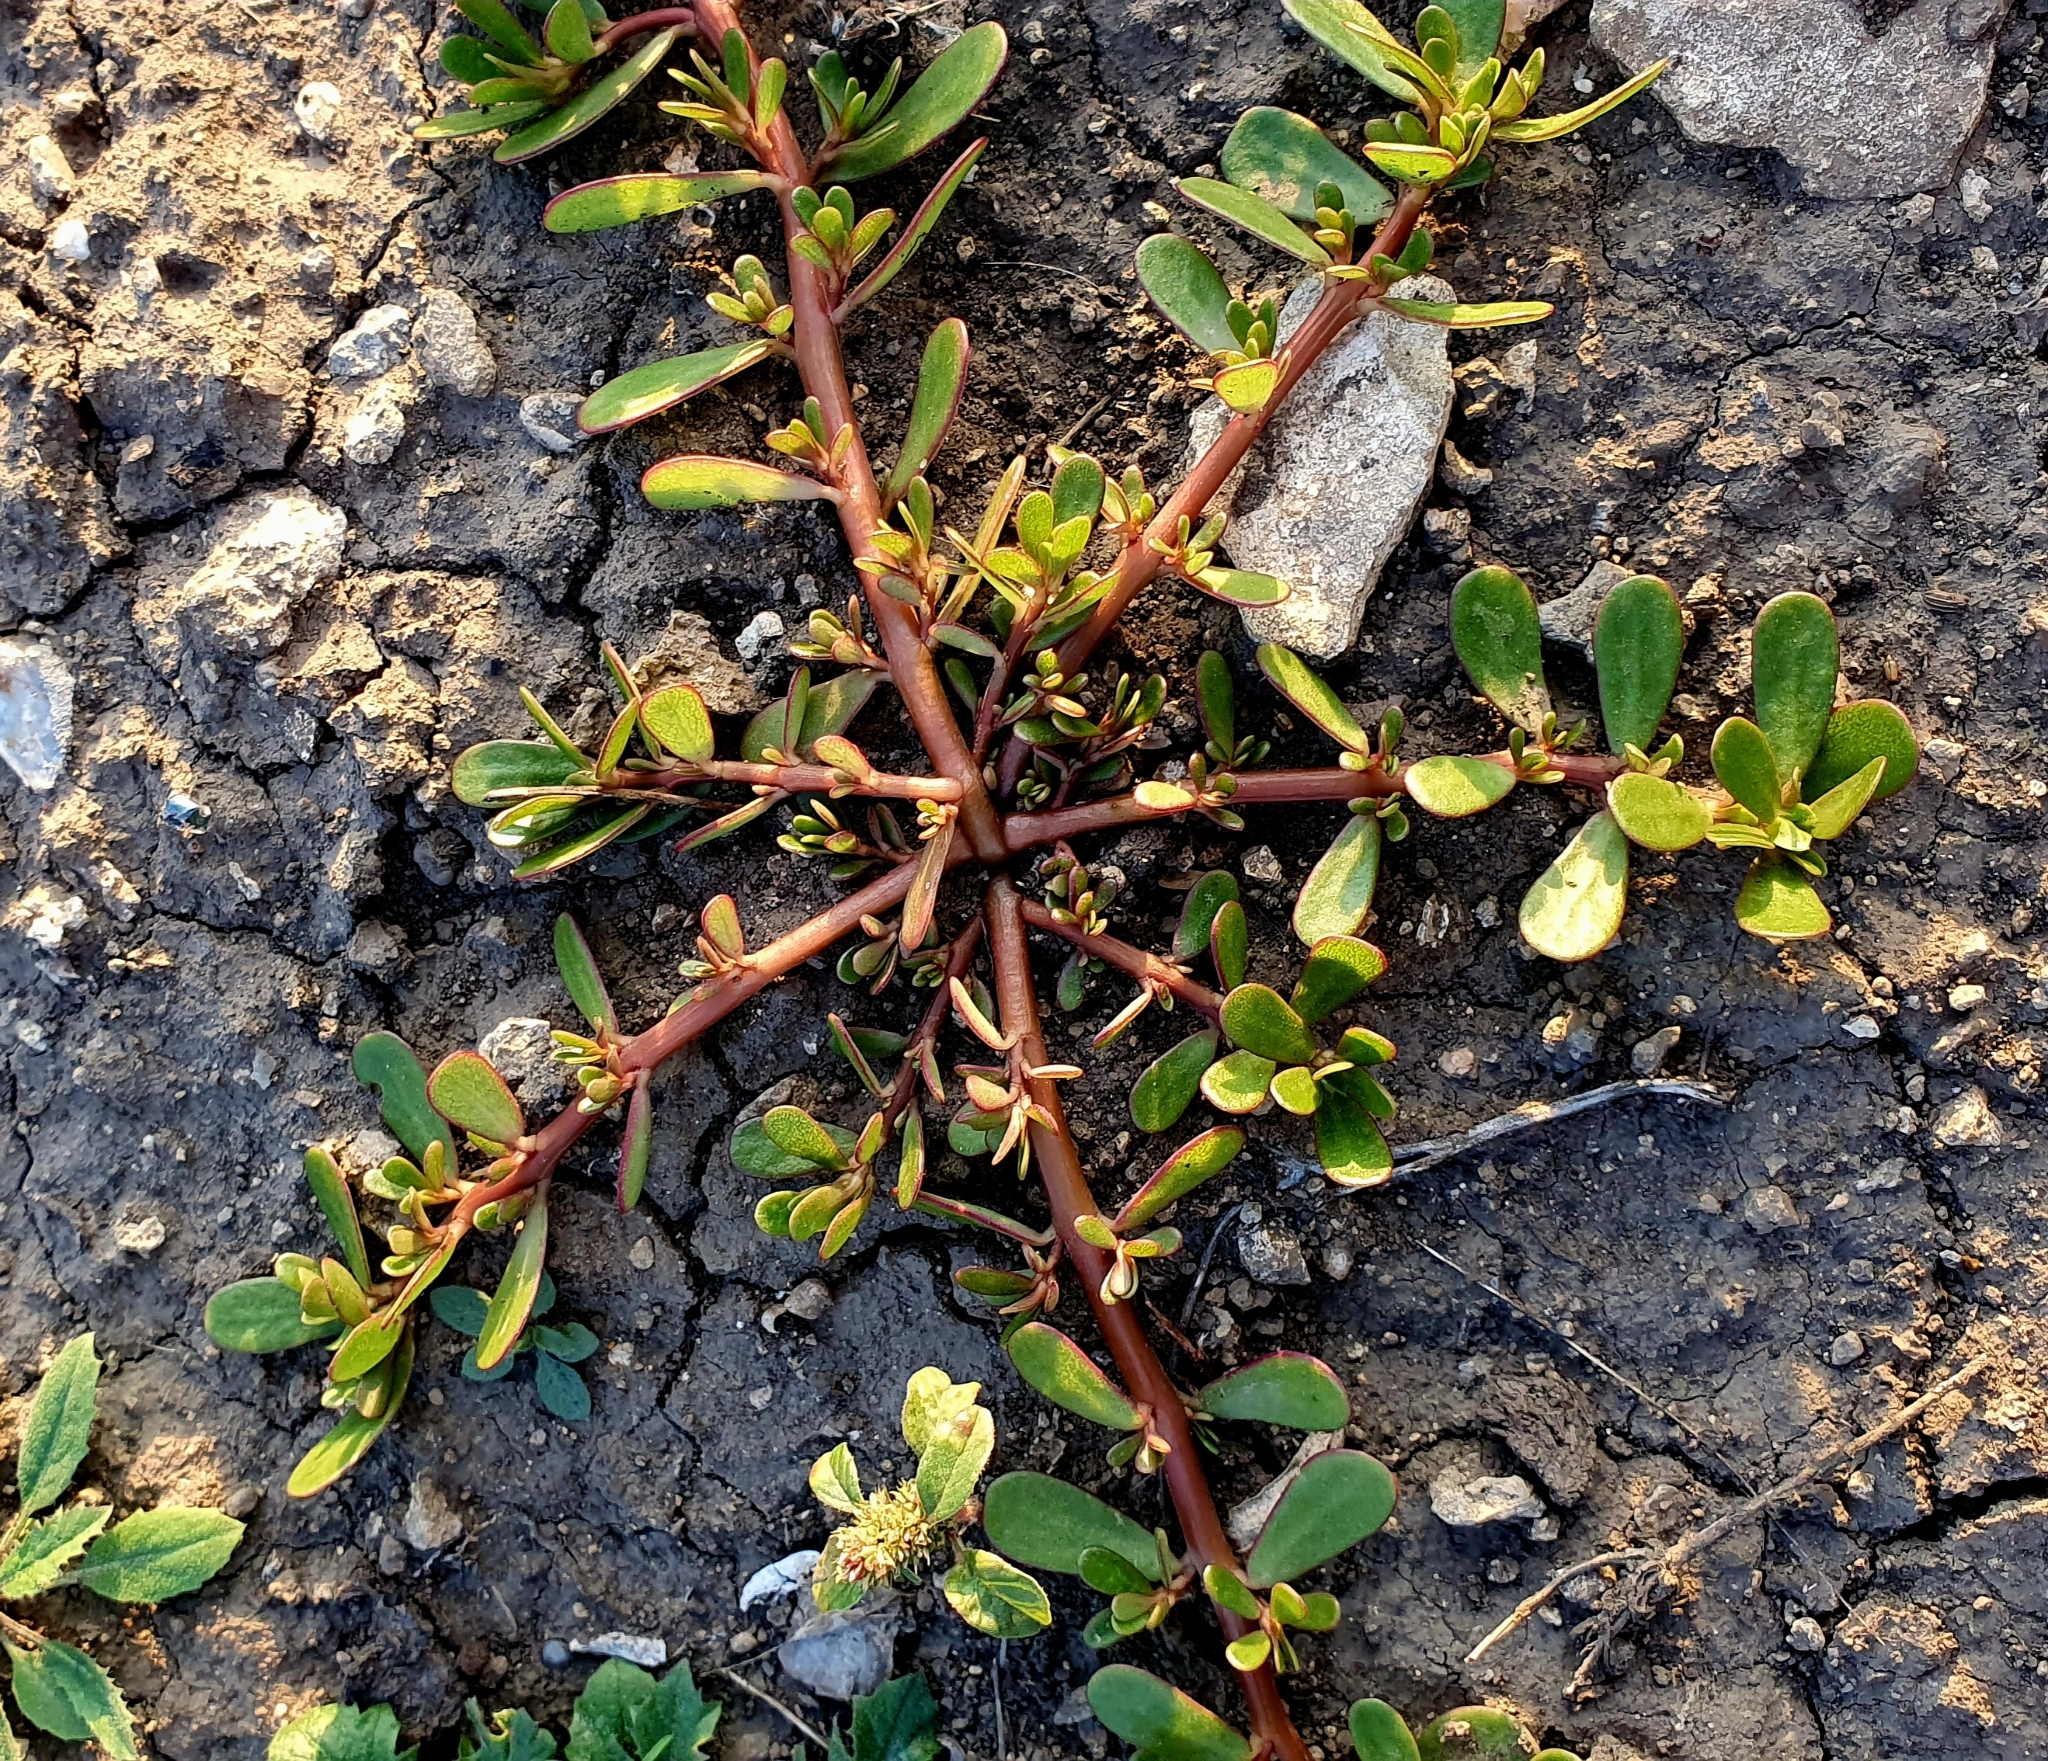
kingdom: Plantae
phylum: Tracheophyta
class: Magnoliopsida
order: Caryophyllales
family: Portulacaceae
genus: Portulaca
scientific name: Portulaca oleracea
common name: Common purslane
